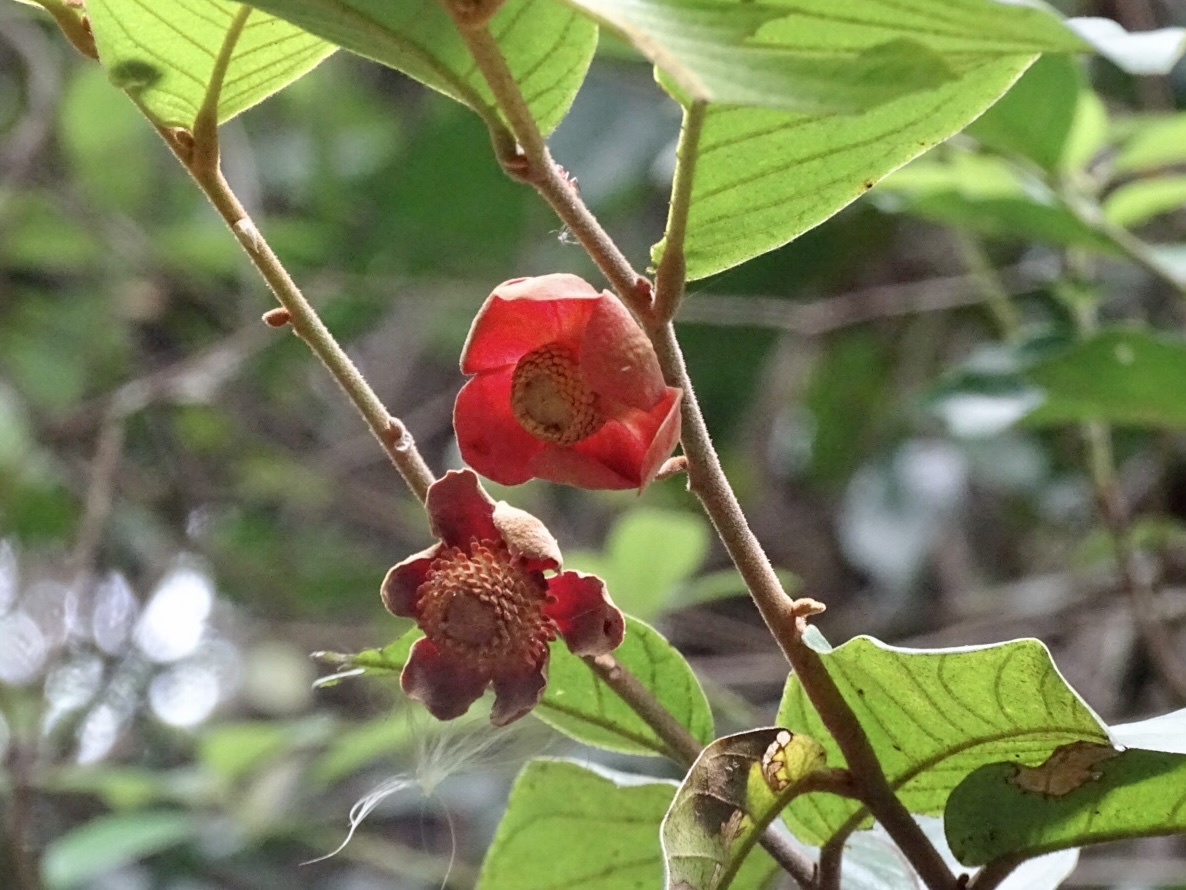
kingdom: Plantae
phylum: Tracheophyta
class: Magnoliopsida
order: Magnoliales
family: Annonaceae
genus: Uvaria
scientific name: Uvaria littoralis
